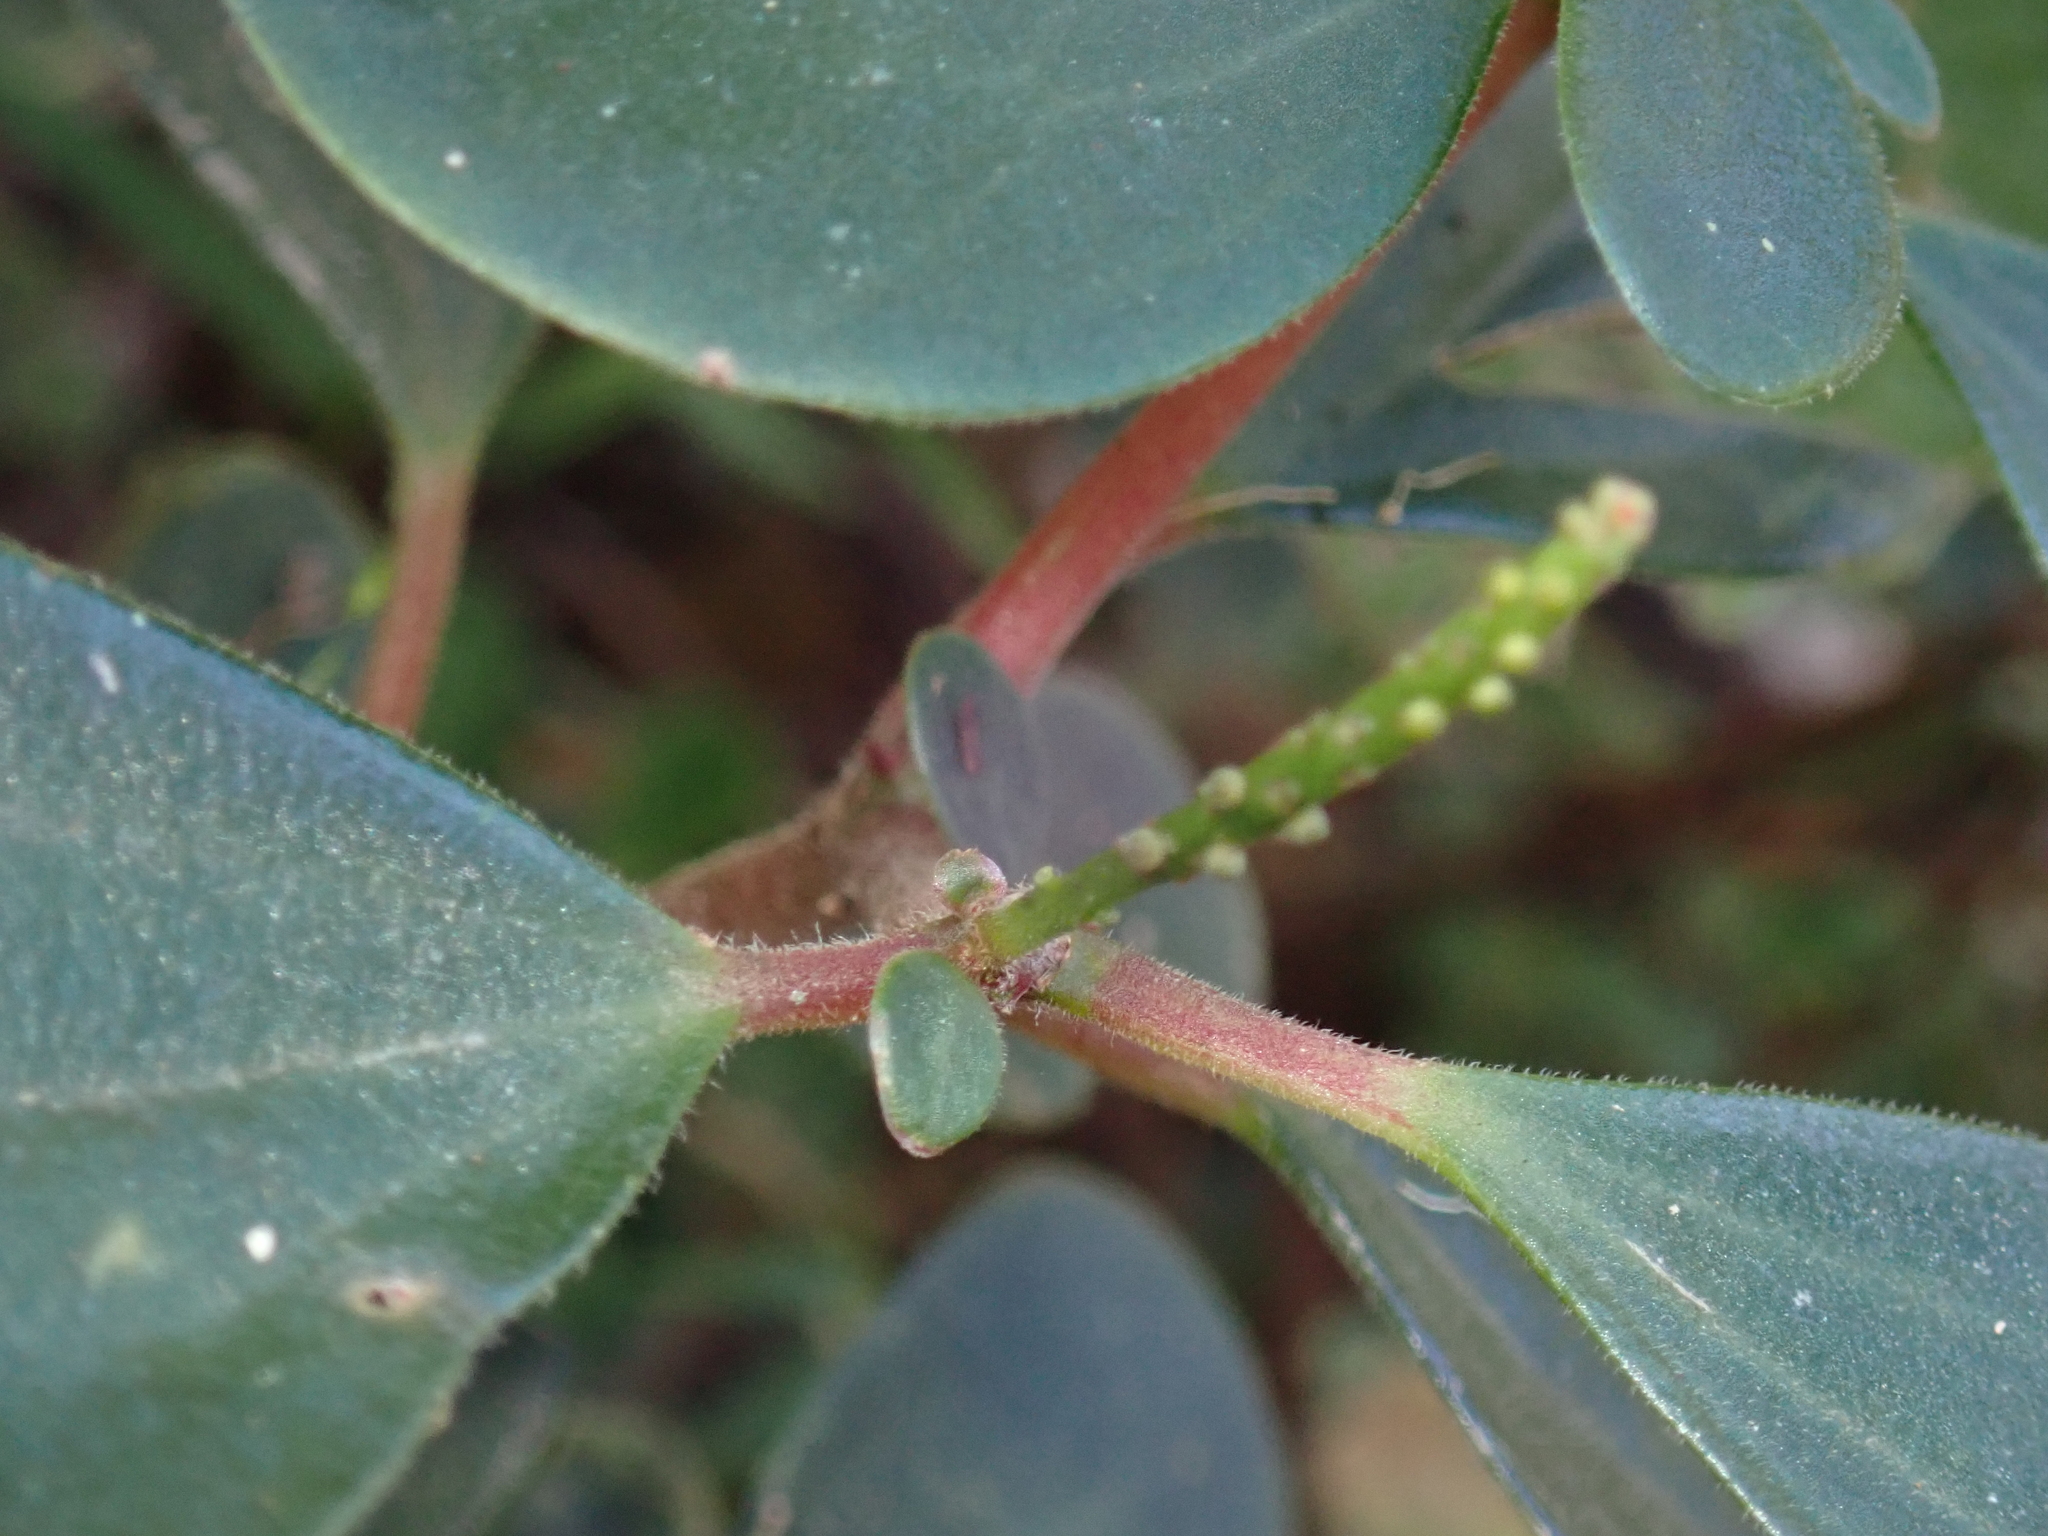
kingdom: Plantae
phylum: Tracheophyta
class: Magnoliopsida
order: Piperales
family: Piperaceae
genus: Peperomia
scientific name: Peperomia leptostachya
